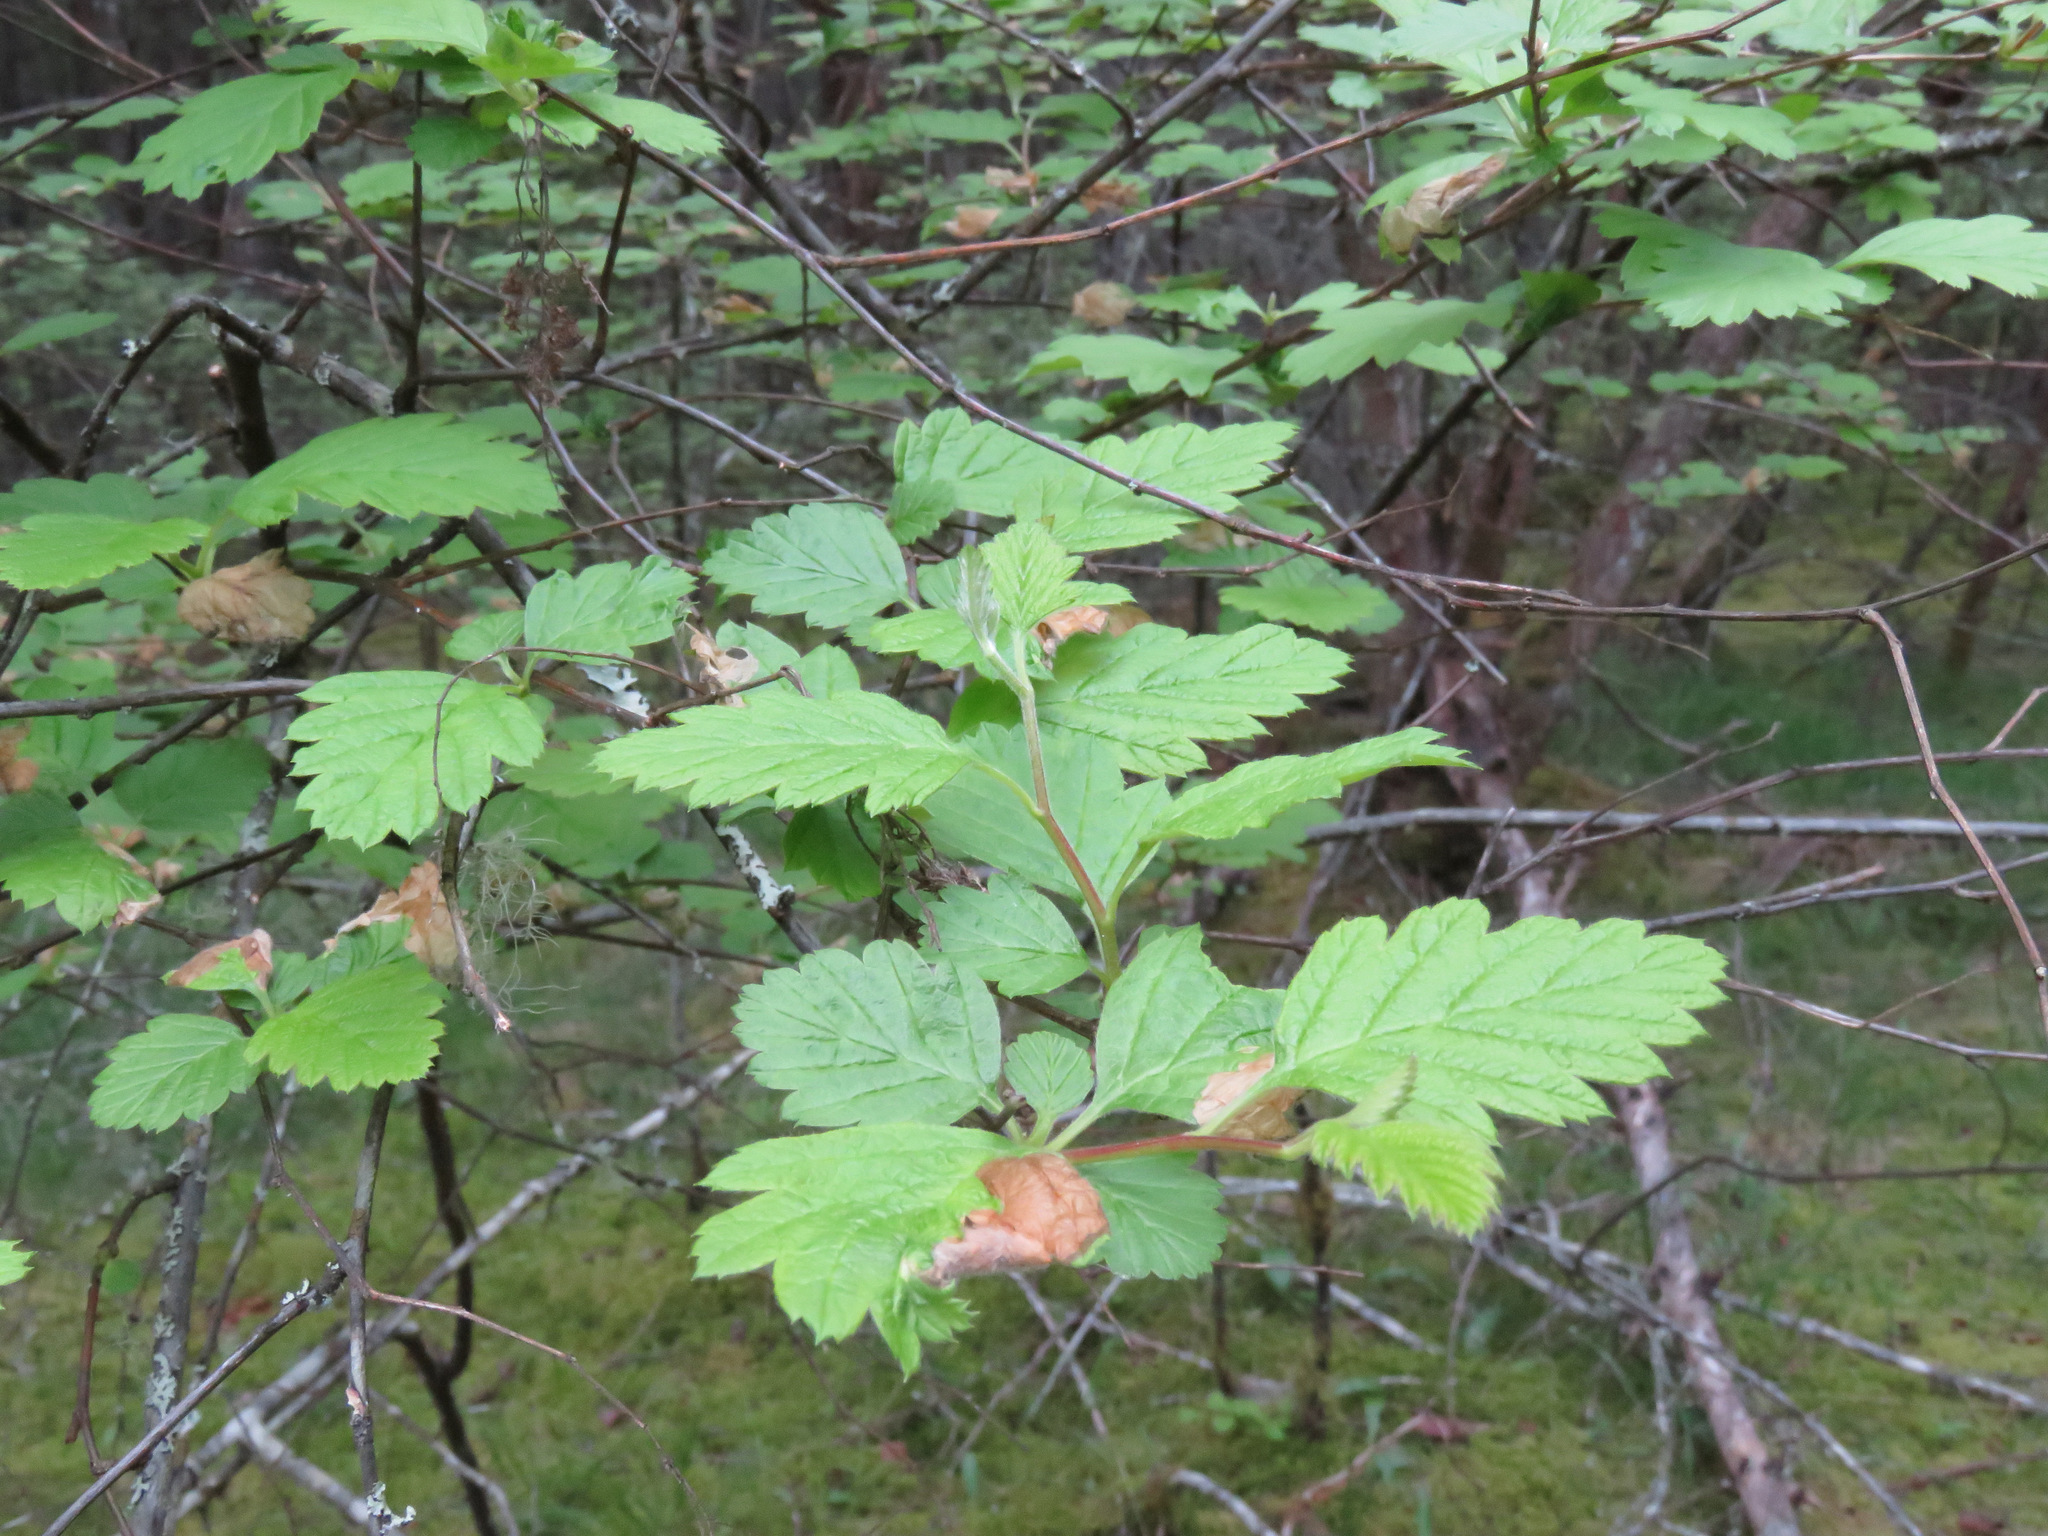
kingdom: Plantae
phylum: Tracheophyta
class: Magnoliopsida
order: Rosales
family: Rosaceae
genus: Holodiscus
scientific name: Holodiscus discolor
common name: Oceanspray
